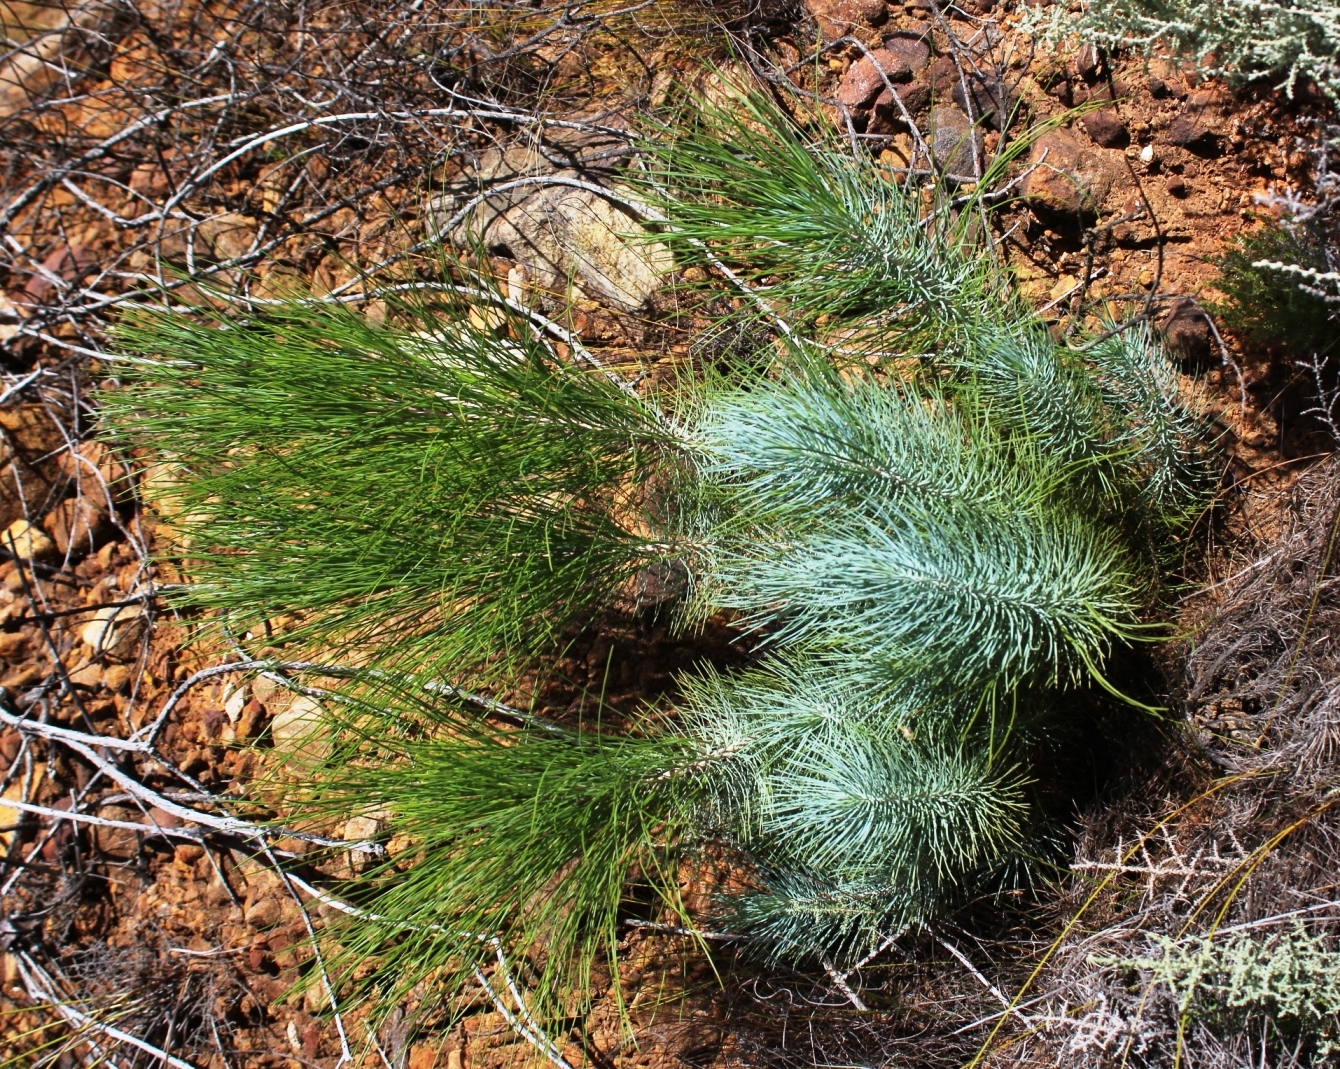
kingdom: Plantae
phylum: Tracheophyta
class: Pinopsida
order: Pinales
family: Pinaceae
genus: Pinus
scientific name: Pinus canariensis
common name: Canary islands pine
